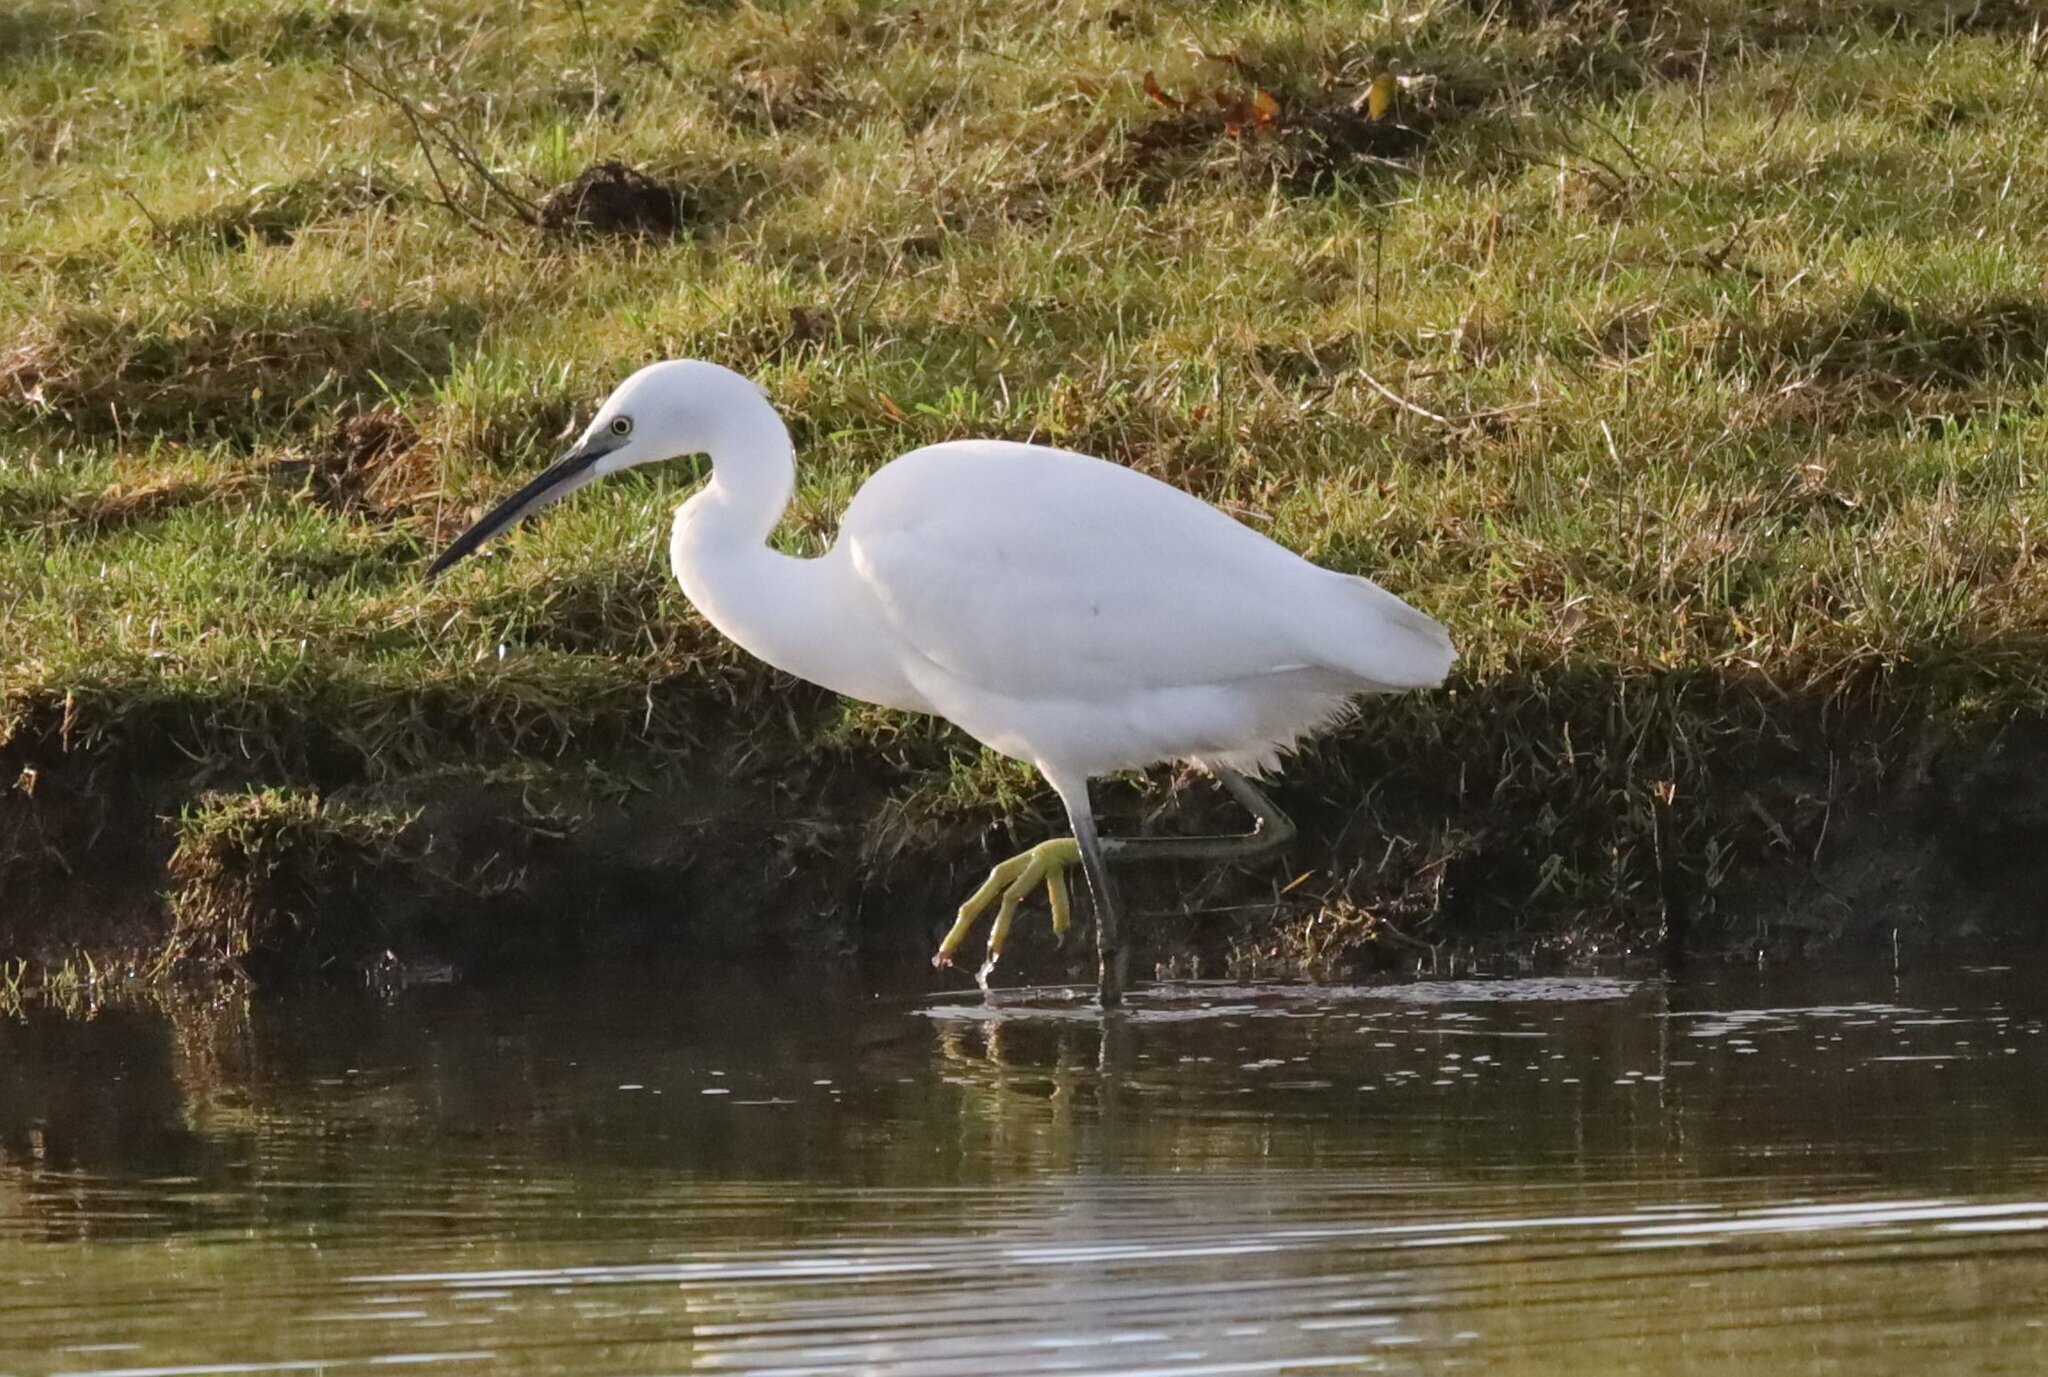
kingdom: Animalia
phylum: Chordata
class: Aves
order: Pelecaniformes
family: Ardeidae
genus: Egretta
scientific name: Egretta garzetta
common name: Little egret
